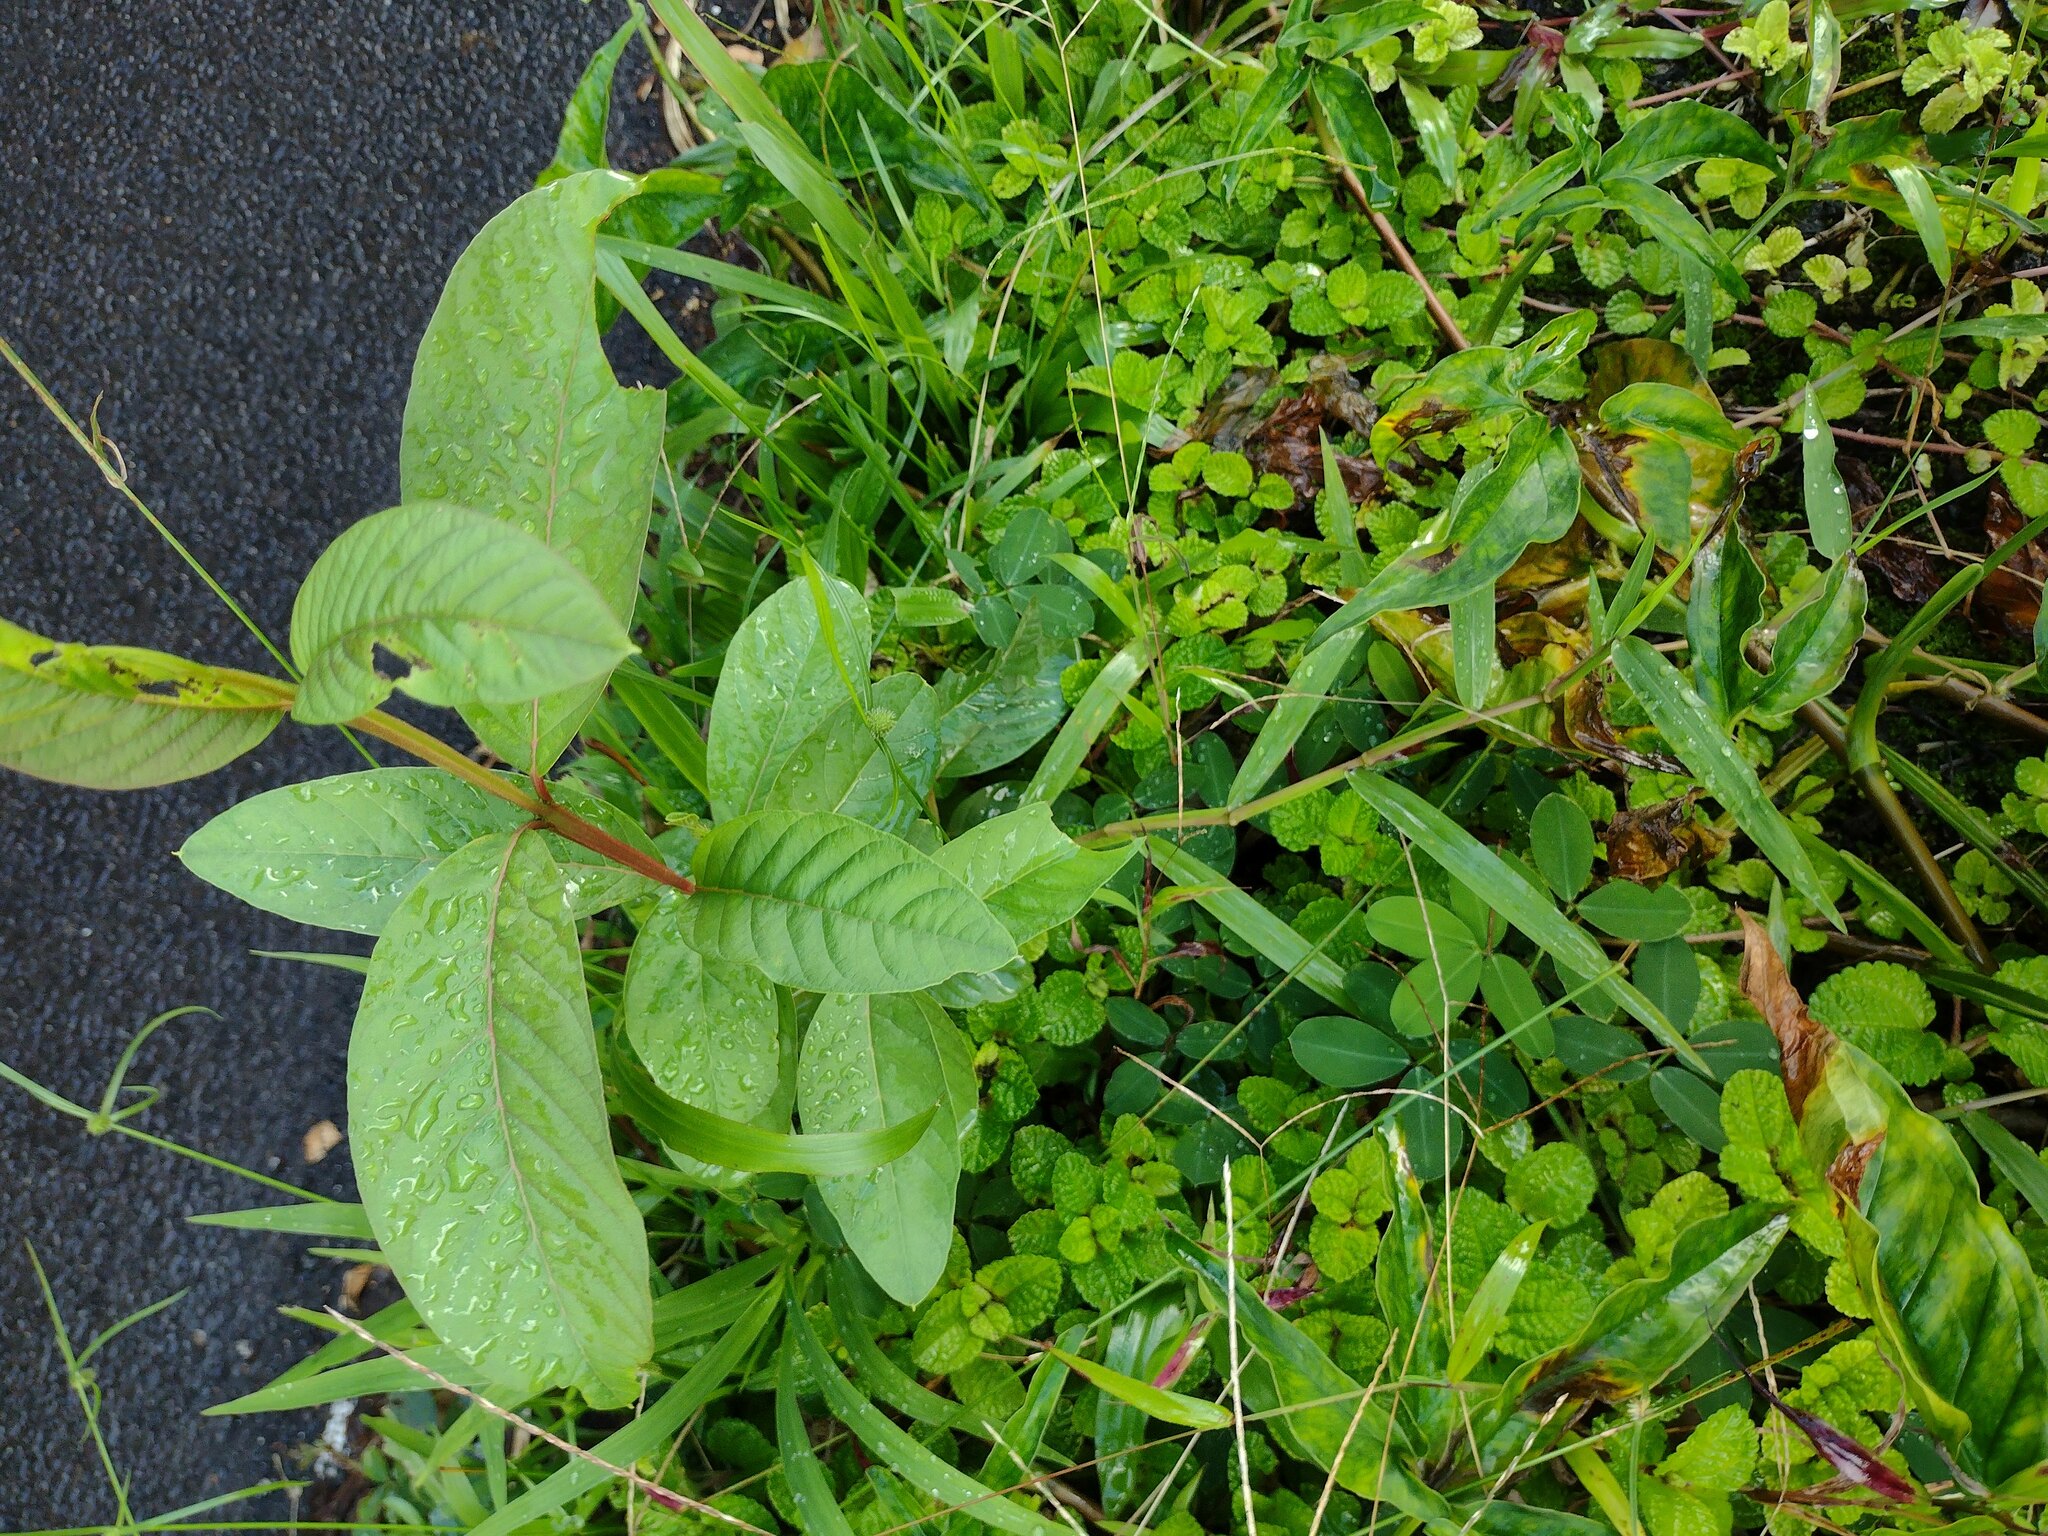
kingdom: Plantae
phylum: Tracheophyta
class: Magnoliopsida
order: Myrtales
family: Myrtaceae
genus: Psidium
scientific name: Psidium guajava
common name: Guava
